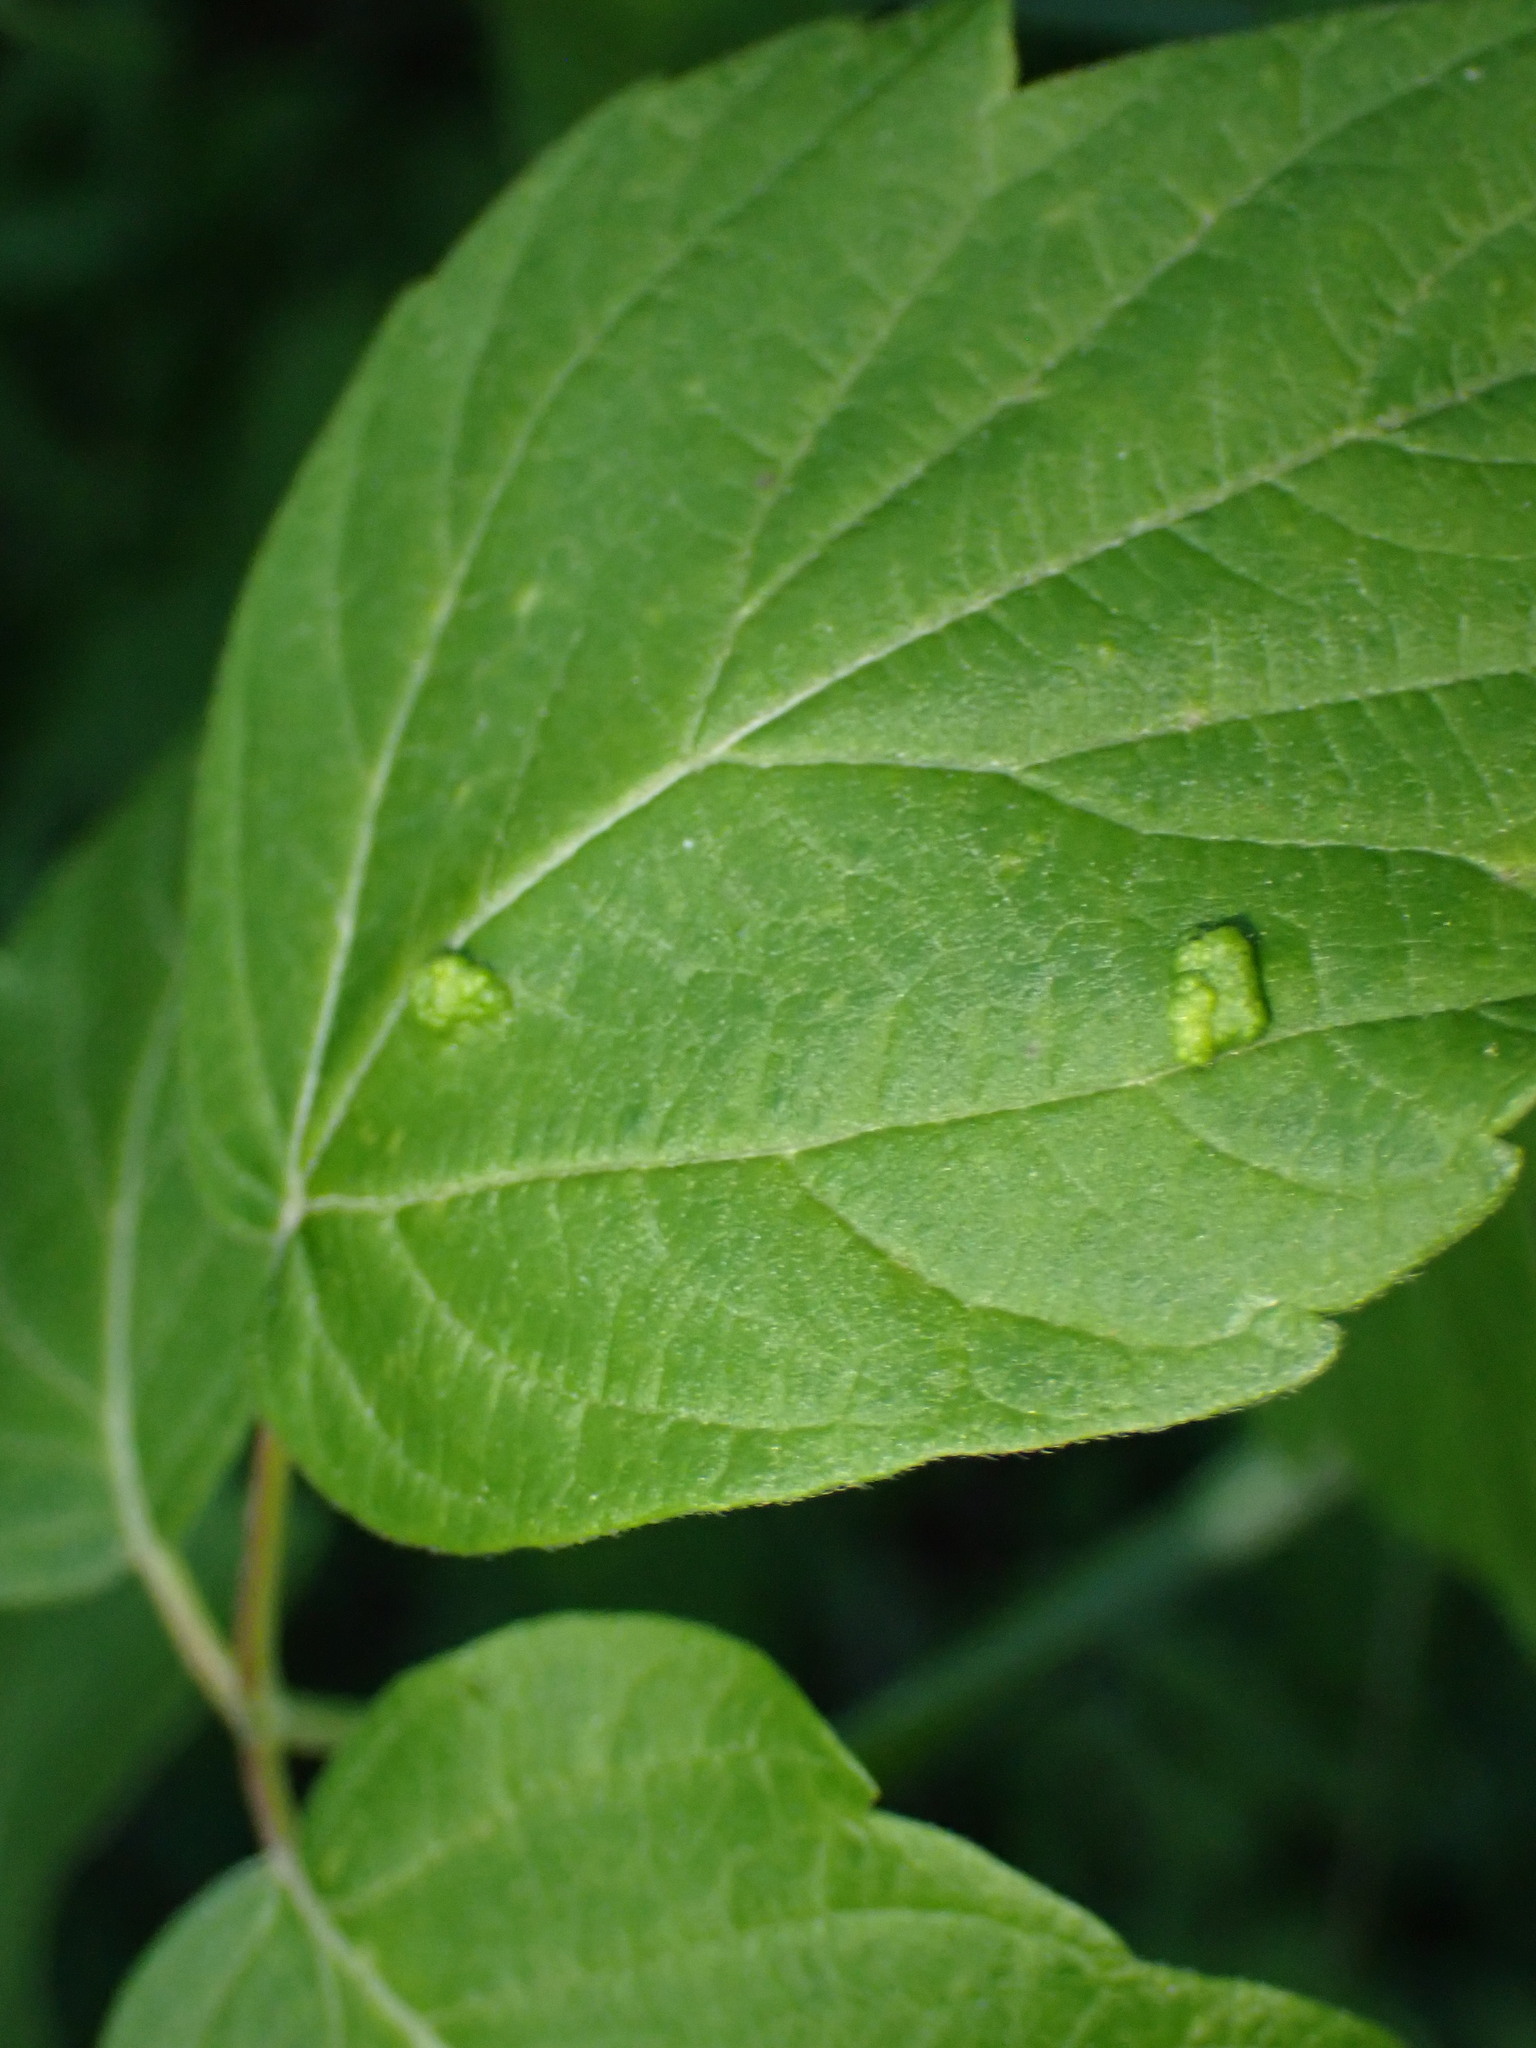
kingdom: Animalia
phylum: Arthropoda
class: Arachnida
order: Trombidiformes
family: Eriophyidae
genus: Aceria
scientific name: Aceria
